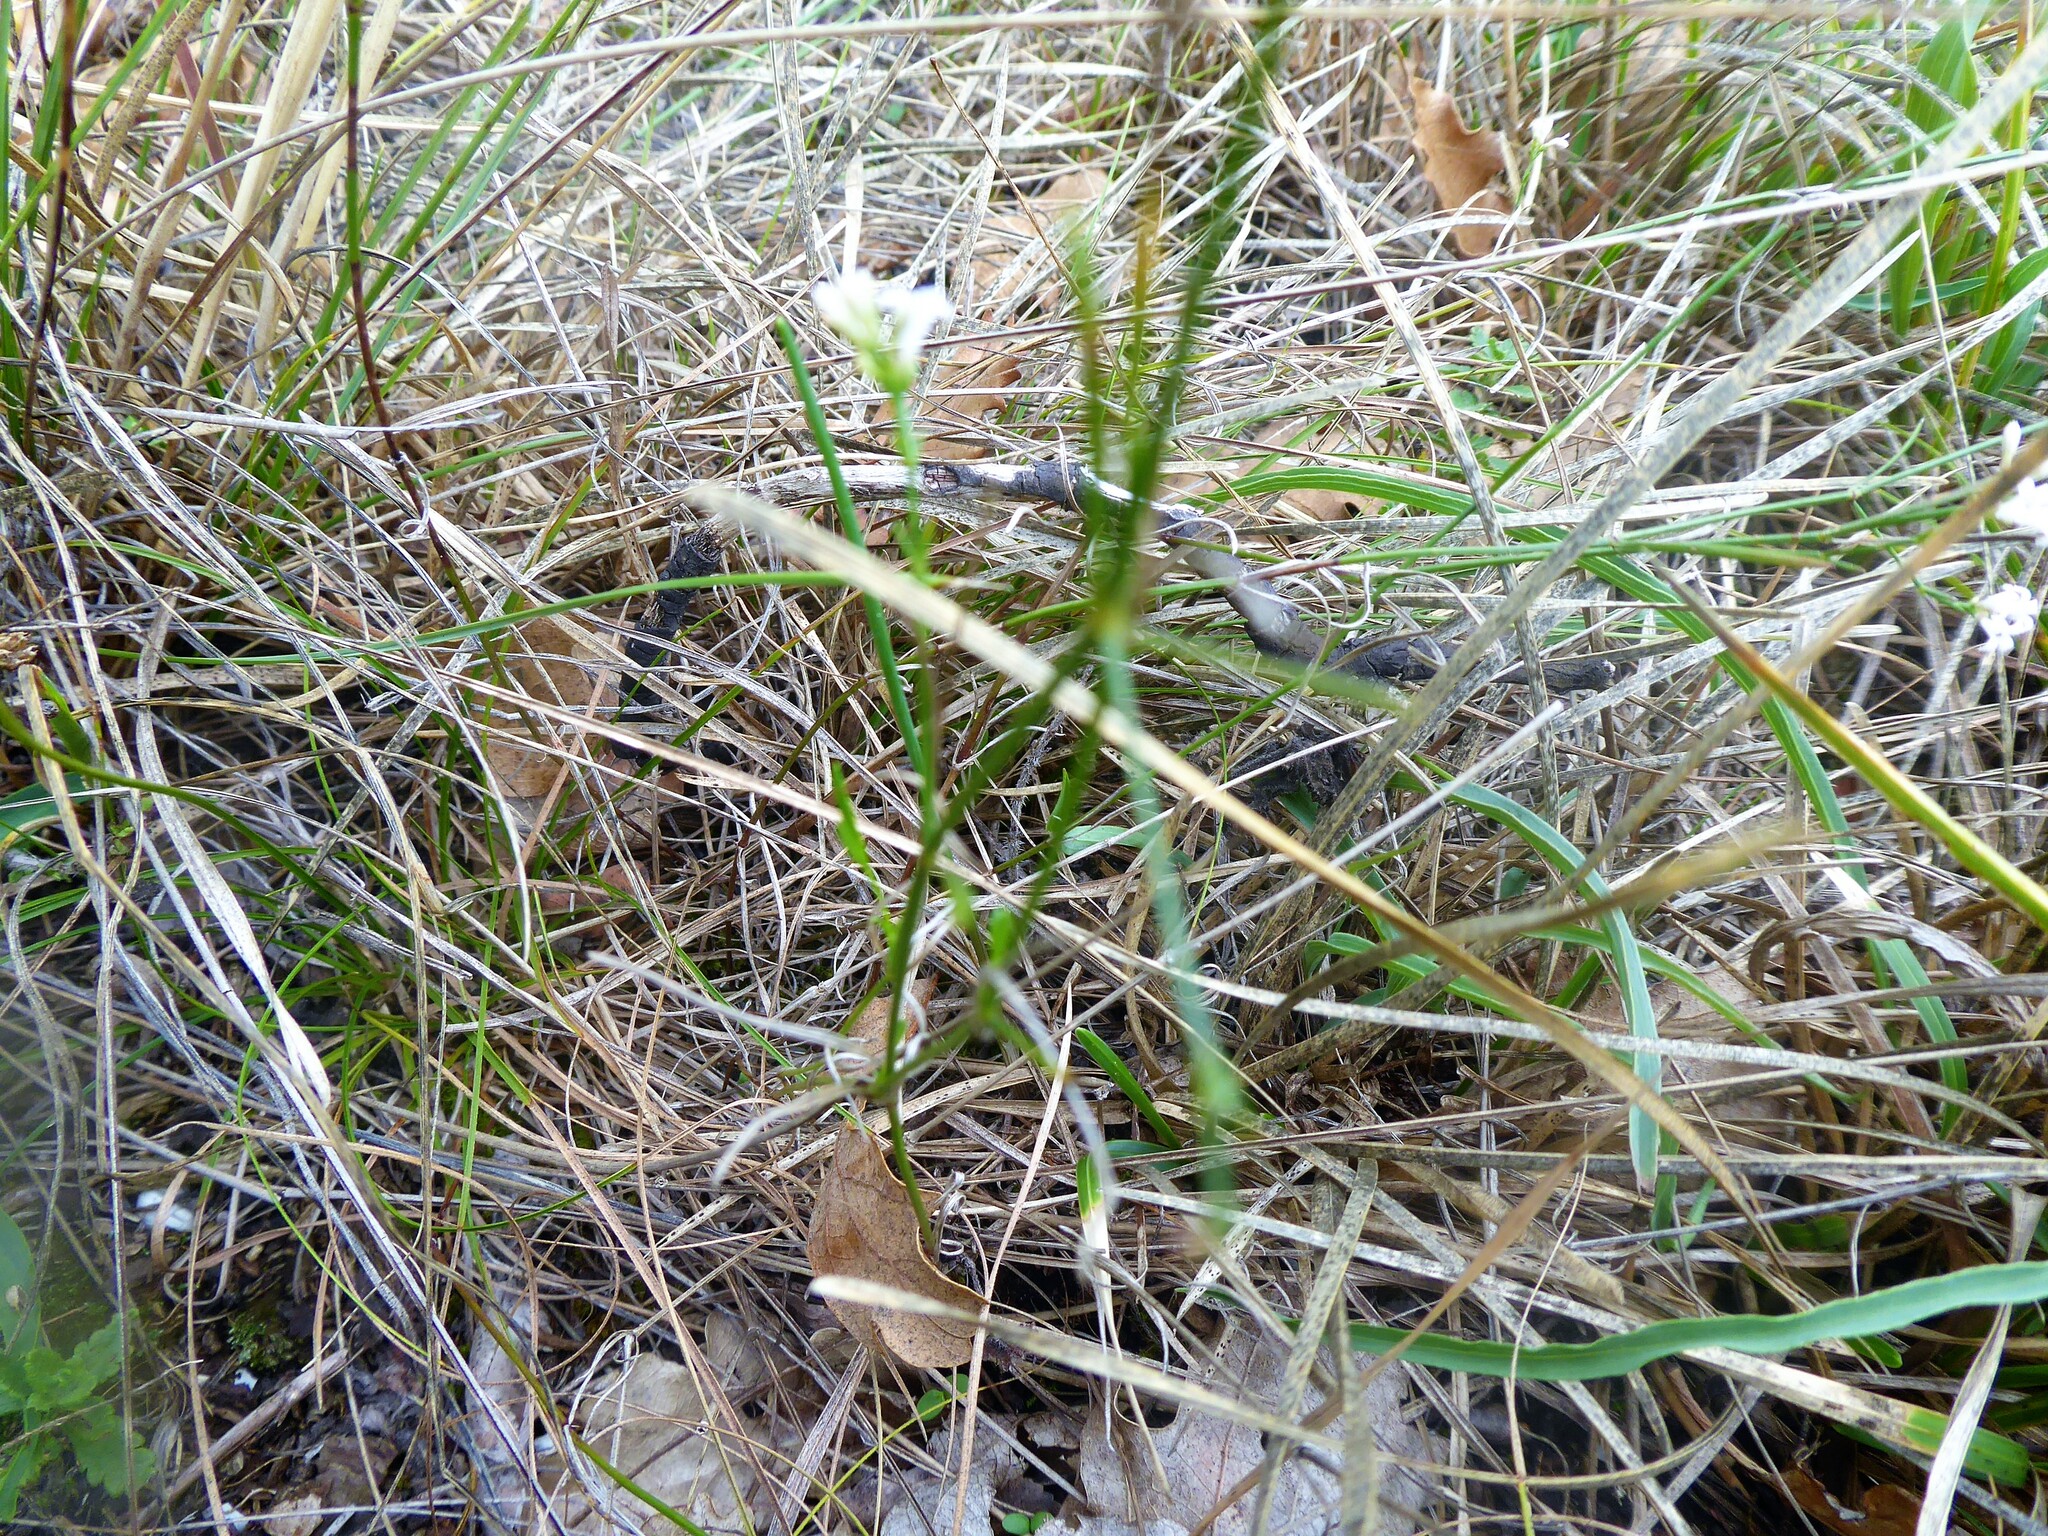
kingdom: Plantae
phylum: Tracheophyta
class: Magnoliopsida
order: Gentianales
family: Rubiaceae
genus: Cynanchica
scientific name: Cynanchica pyrenaica
